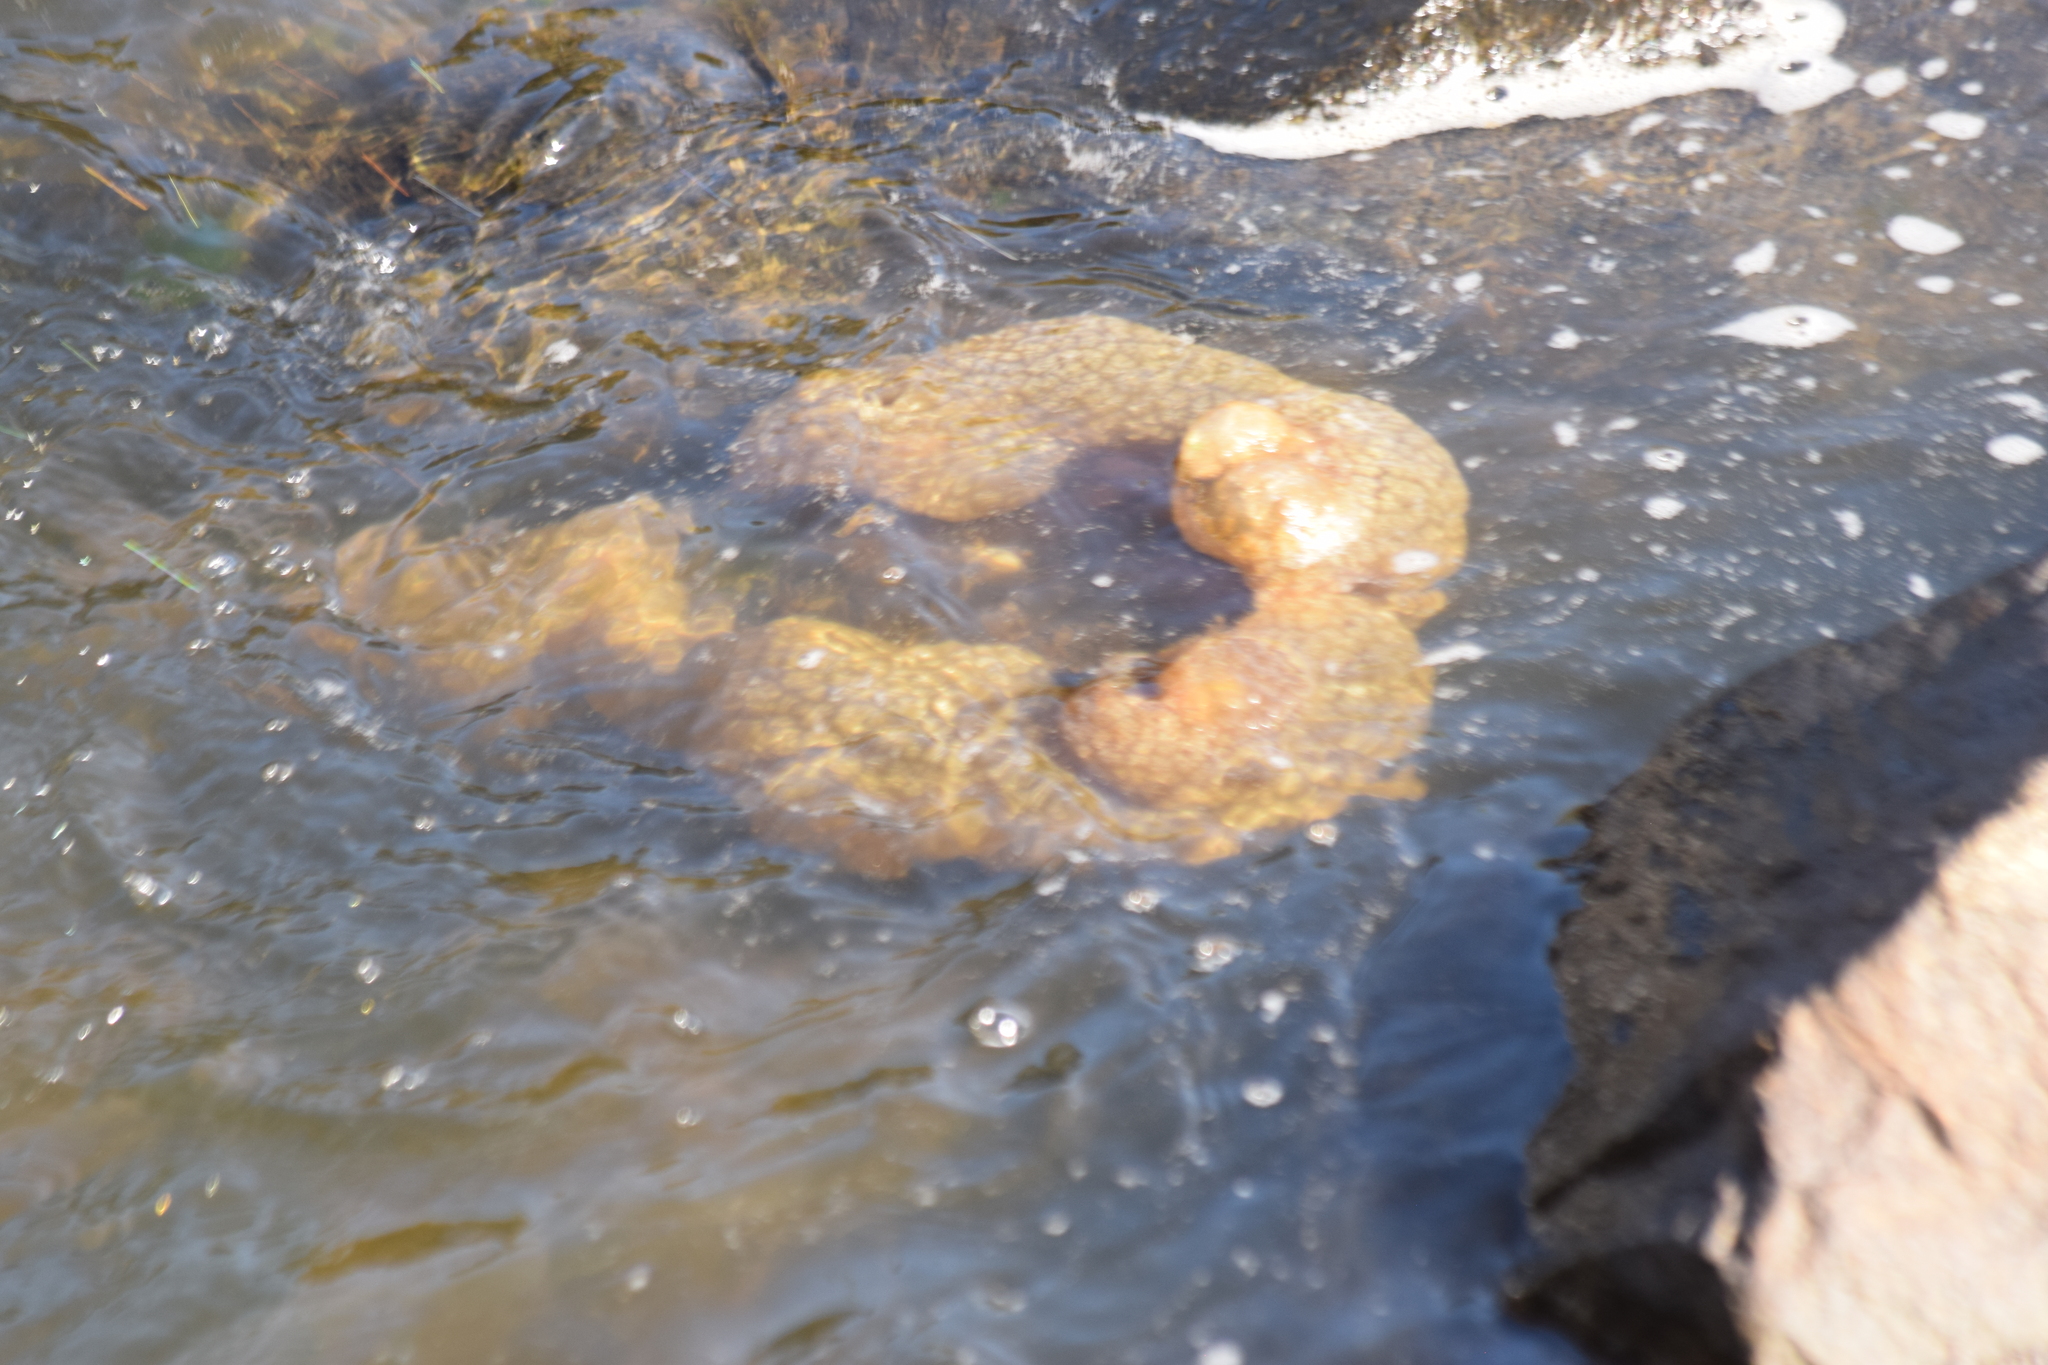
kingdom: Animalia
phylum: Bryozoa
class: Phylactolaemata
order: Plumatellida
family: Pectinatellidae
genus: Pectinatella
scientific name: Pectinatella magnifica
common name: Magnificent bryozoan
